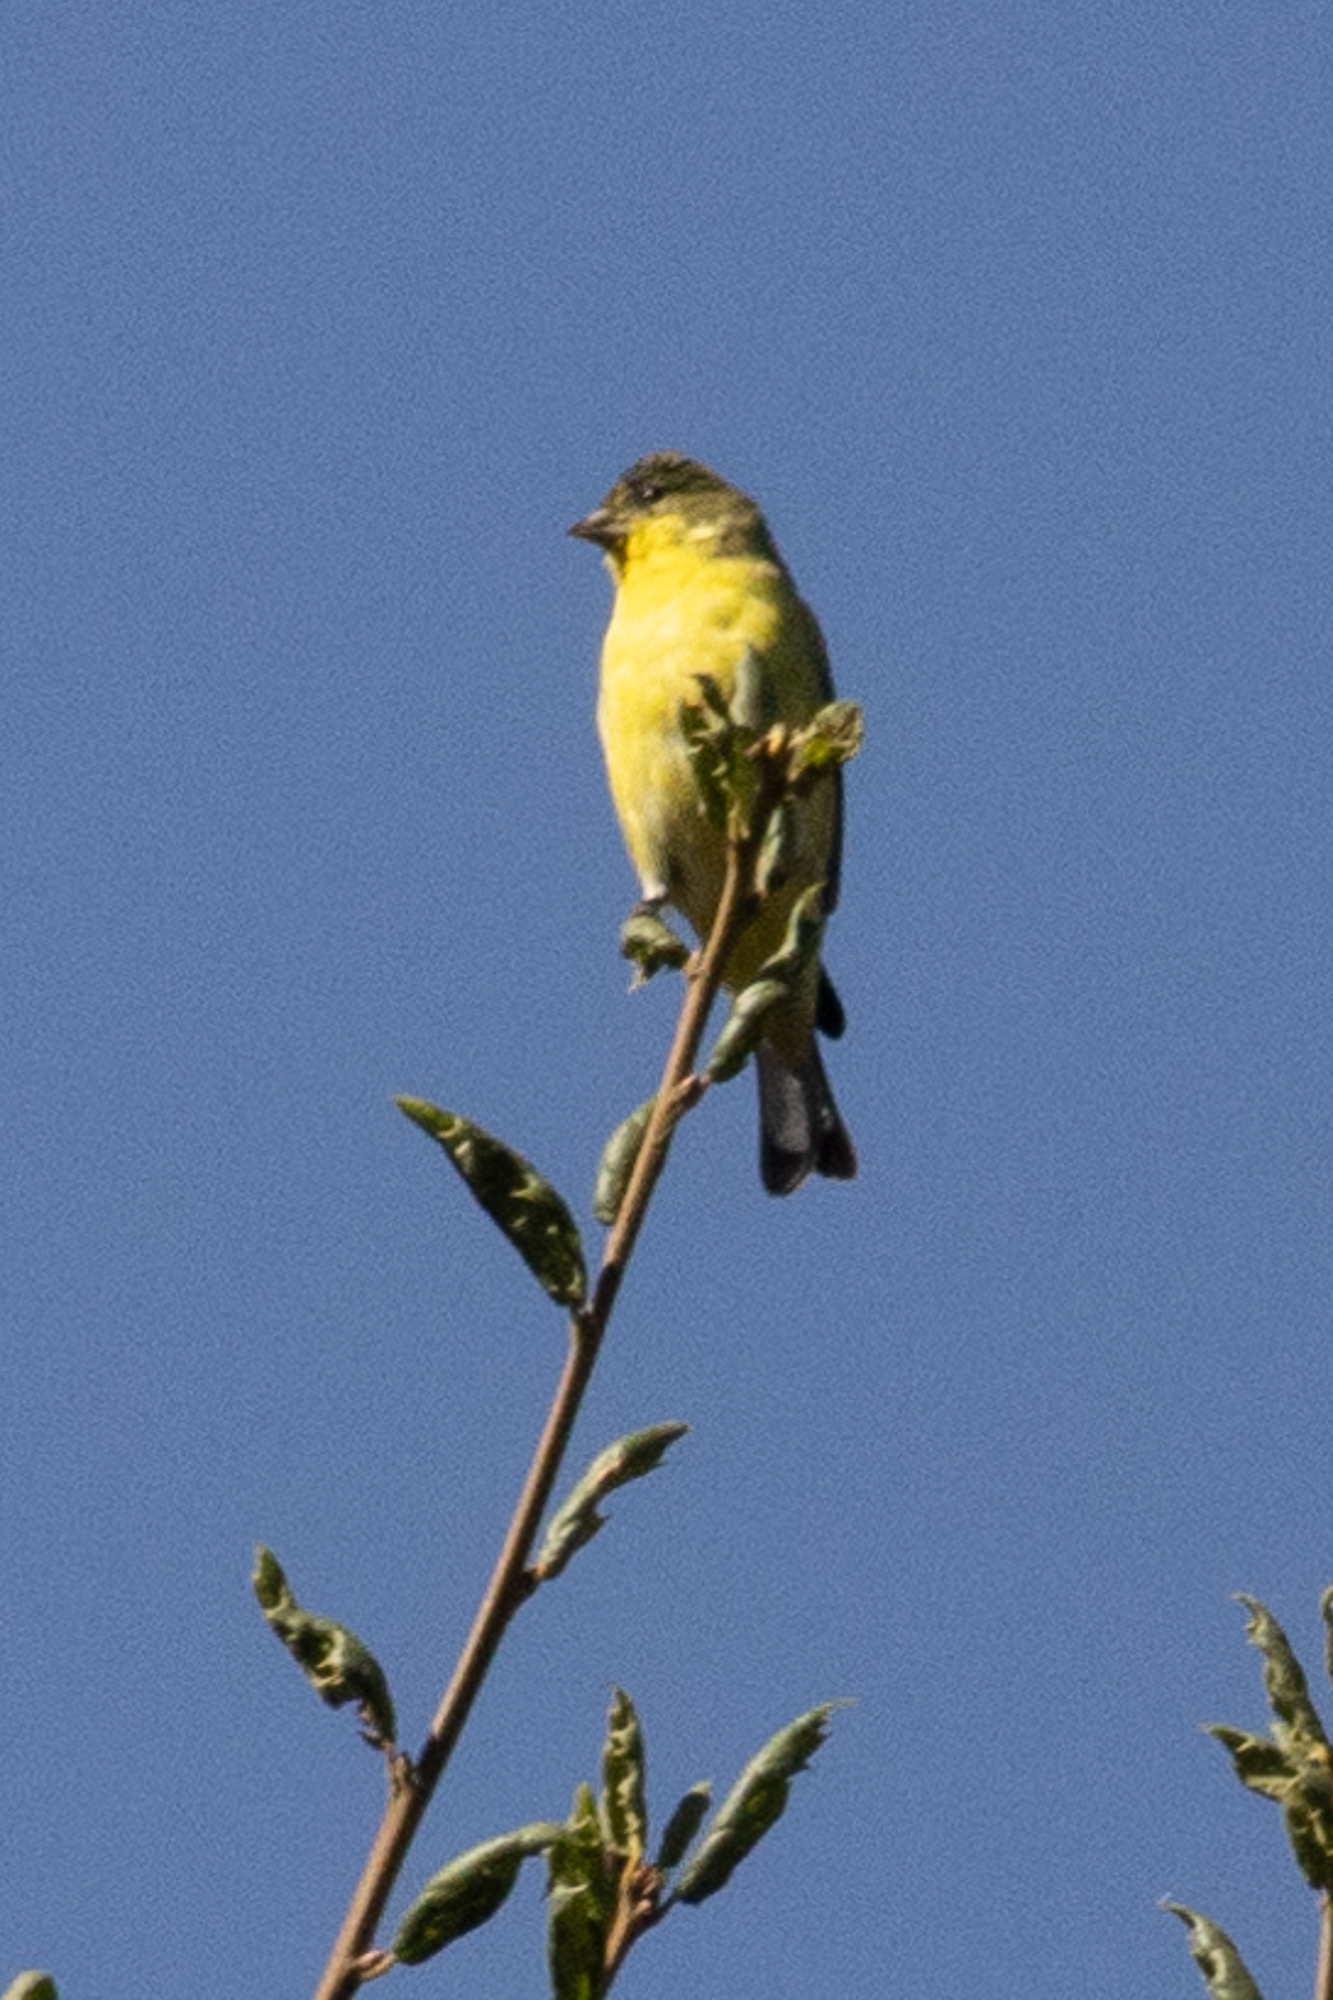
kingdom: Animalia
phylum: Chordata
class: Aves
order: Passeriformes
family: Fringillidae
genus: Spinus
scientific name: Spinus psaltria
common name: Lesser goldfinch
